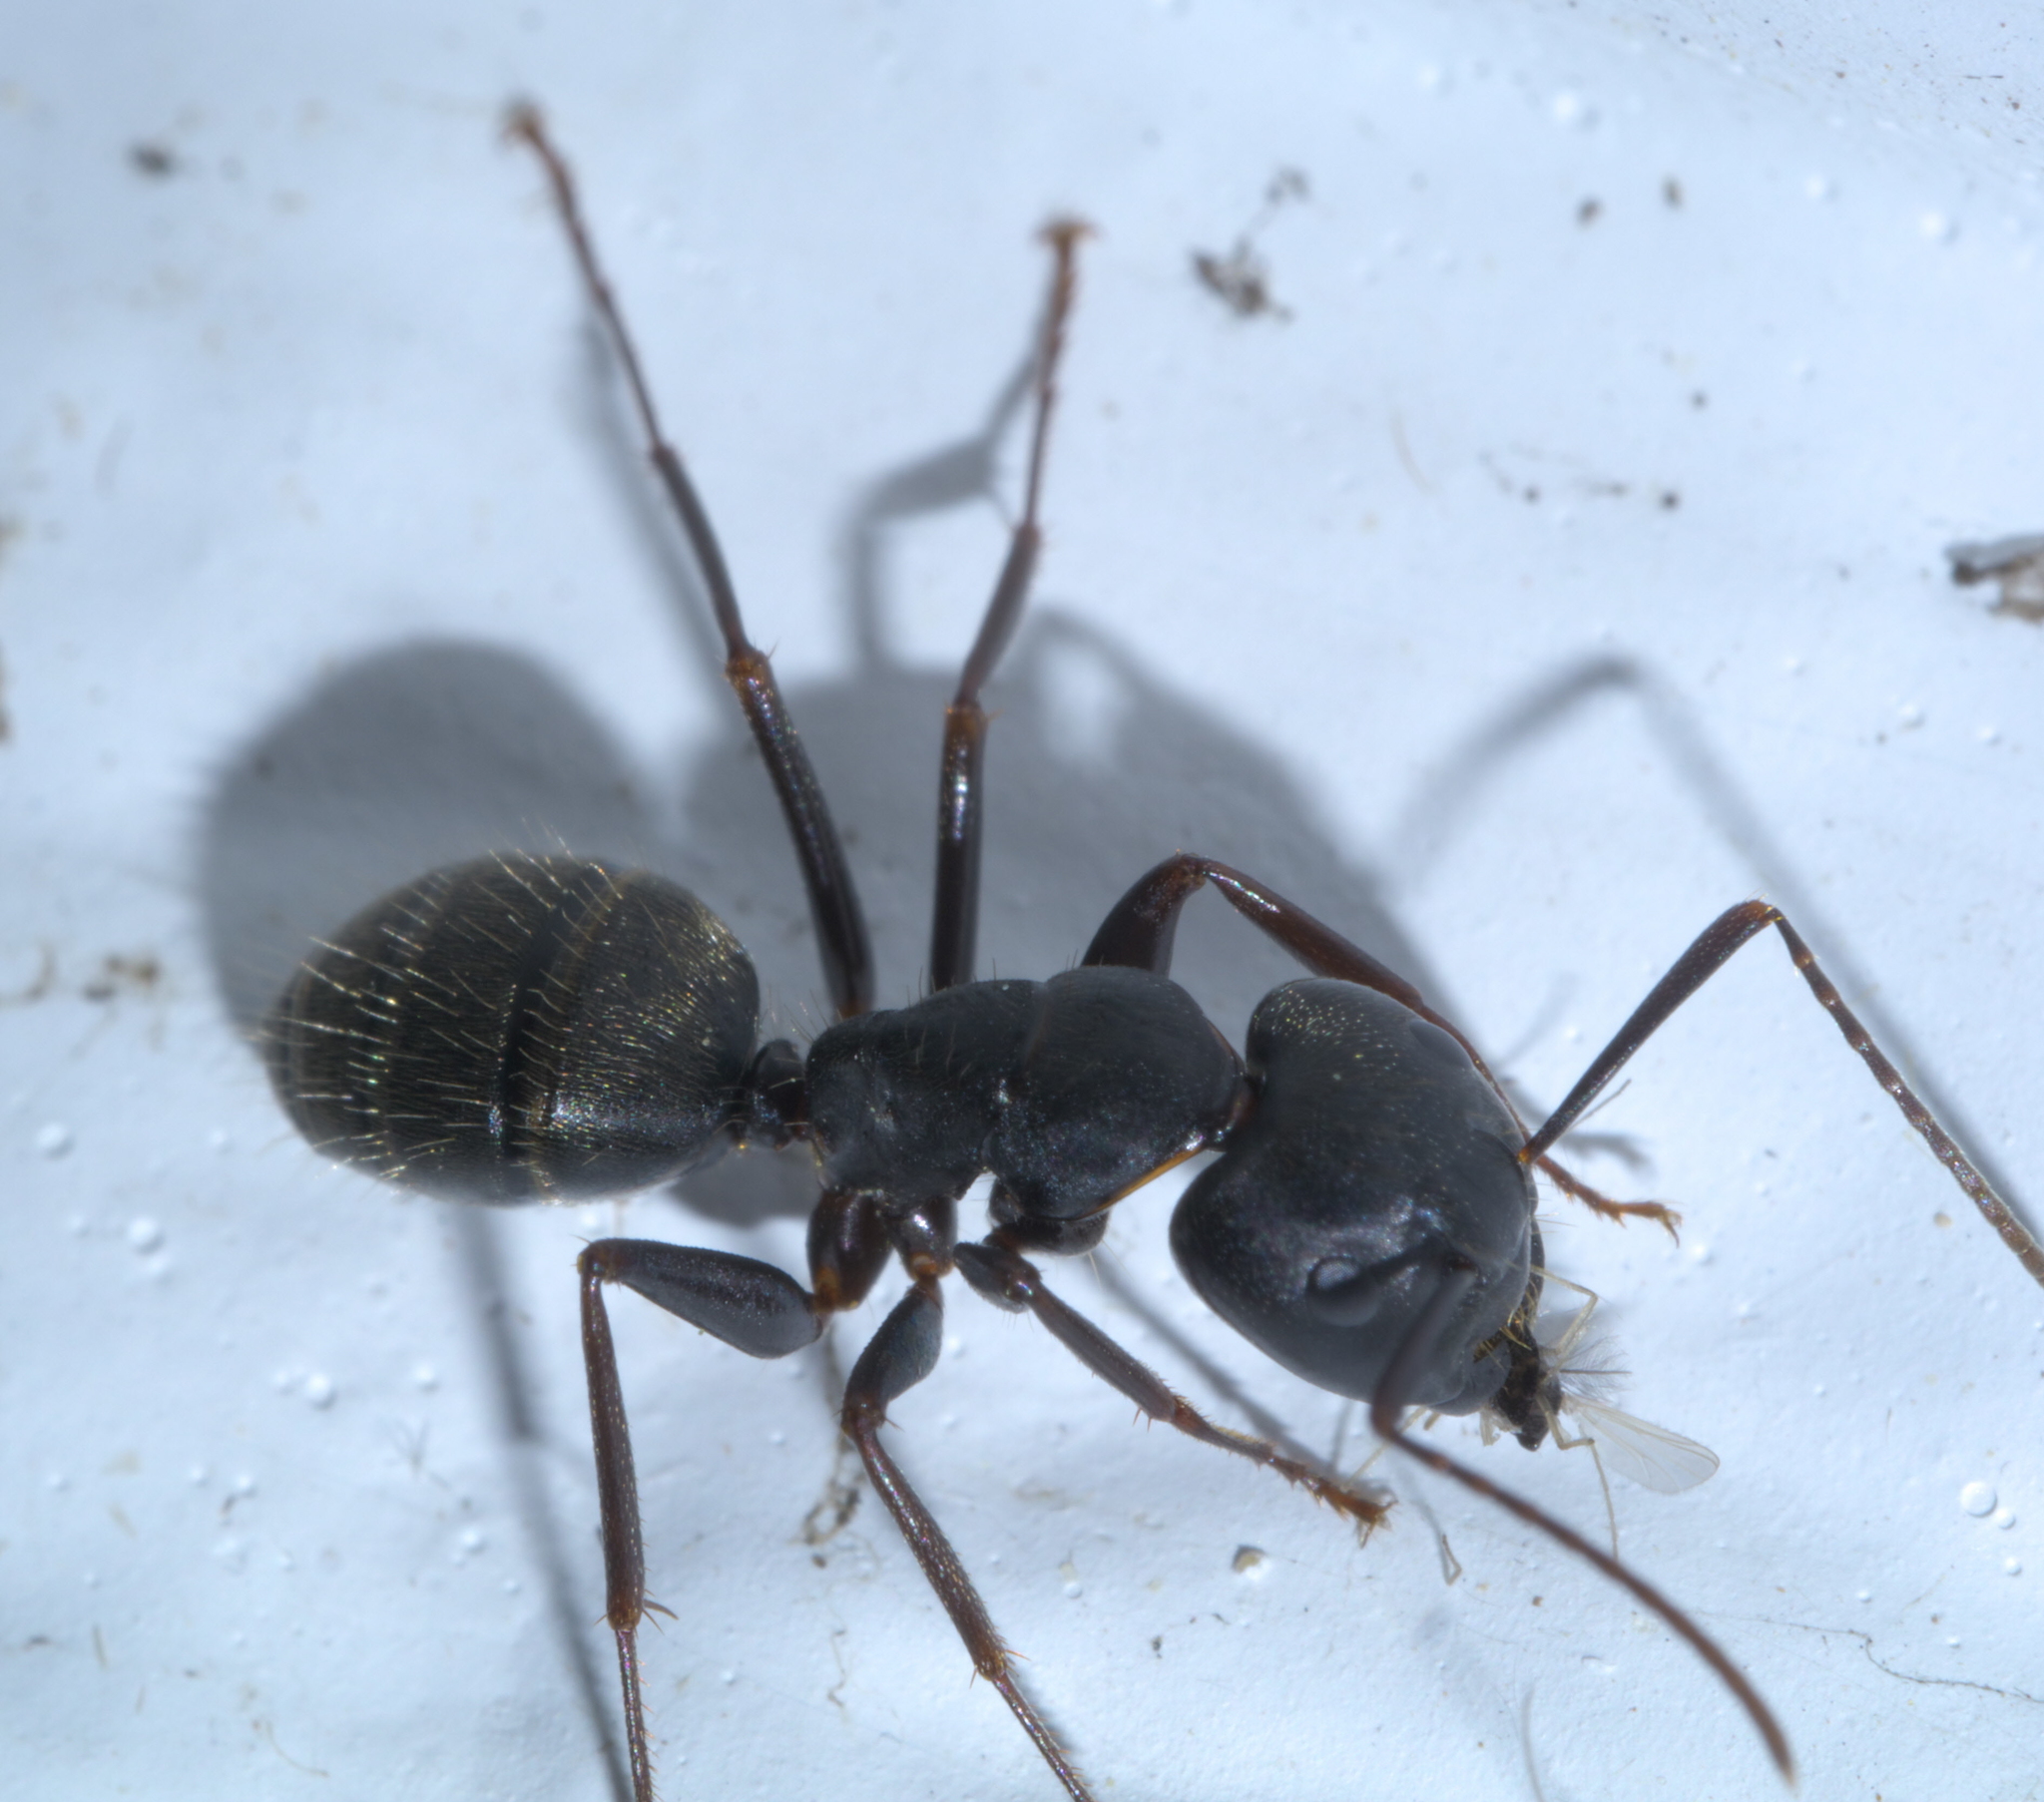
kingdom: Animalia
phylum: Arthropoda
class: Insecta
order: Hymenoptera
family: Formicidae
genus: Camponotus
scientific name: Camponotus pennsylvanicus
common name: Black carpenter ant
